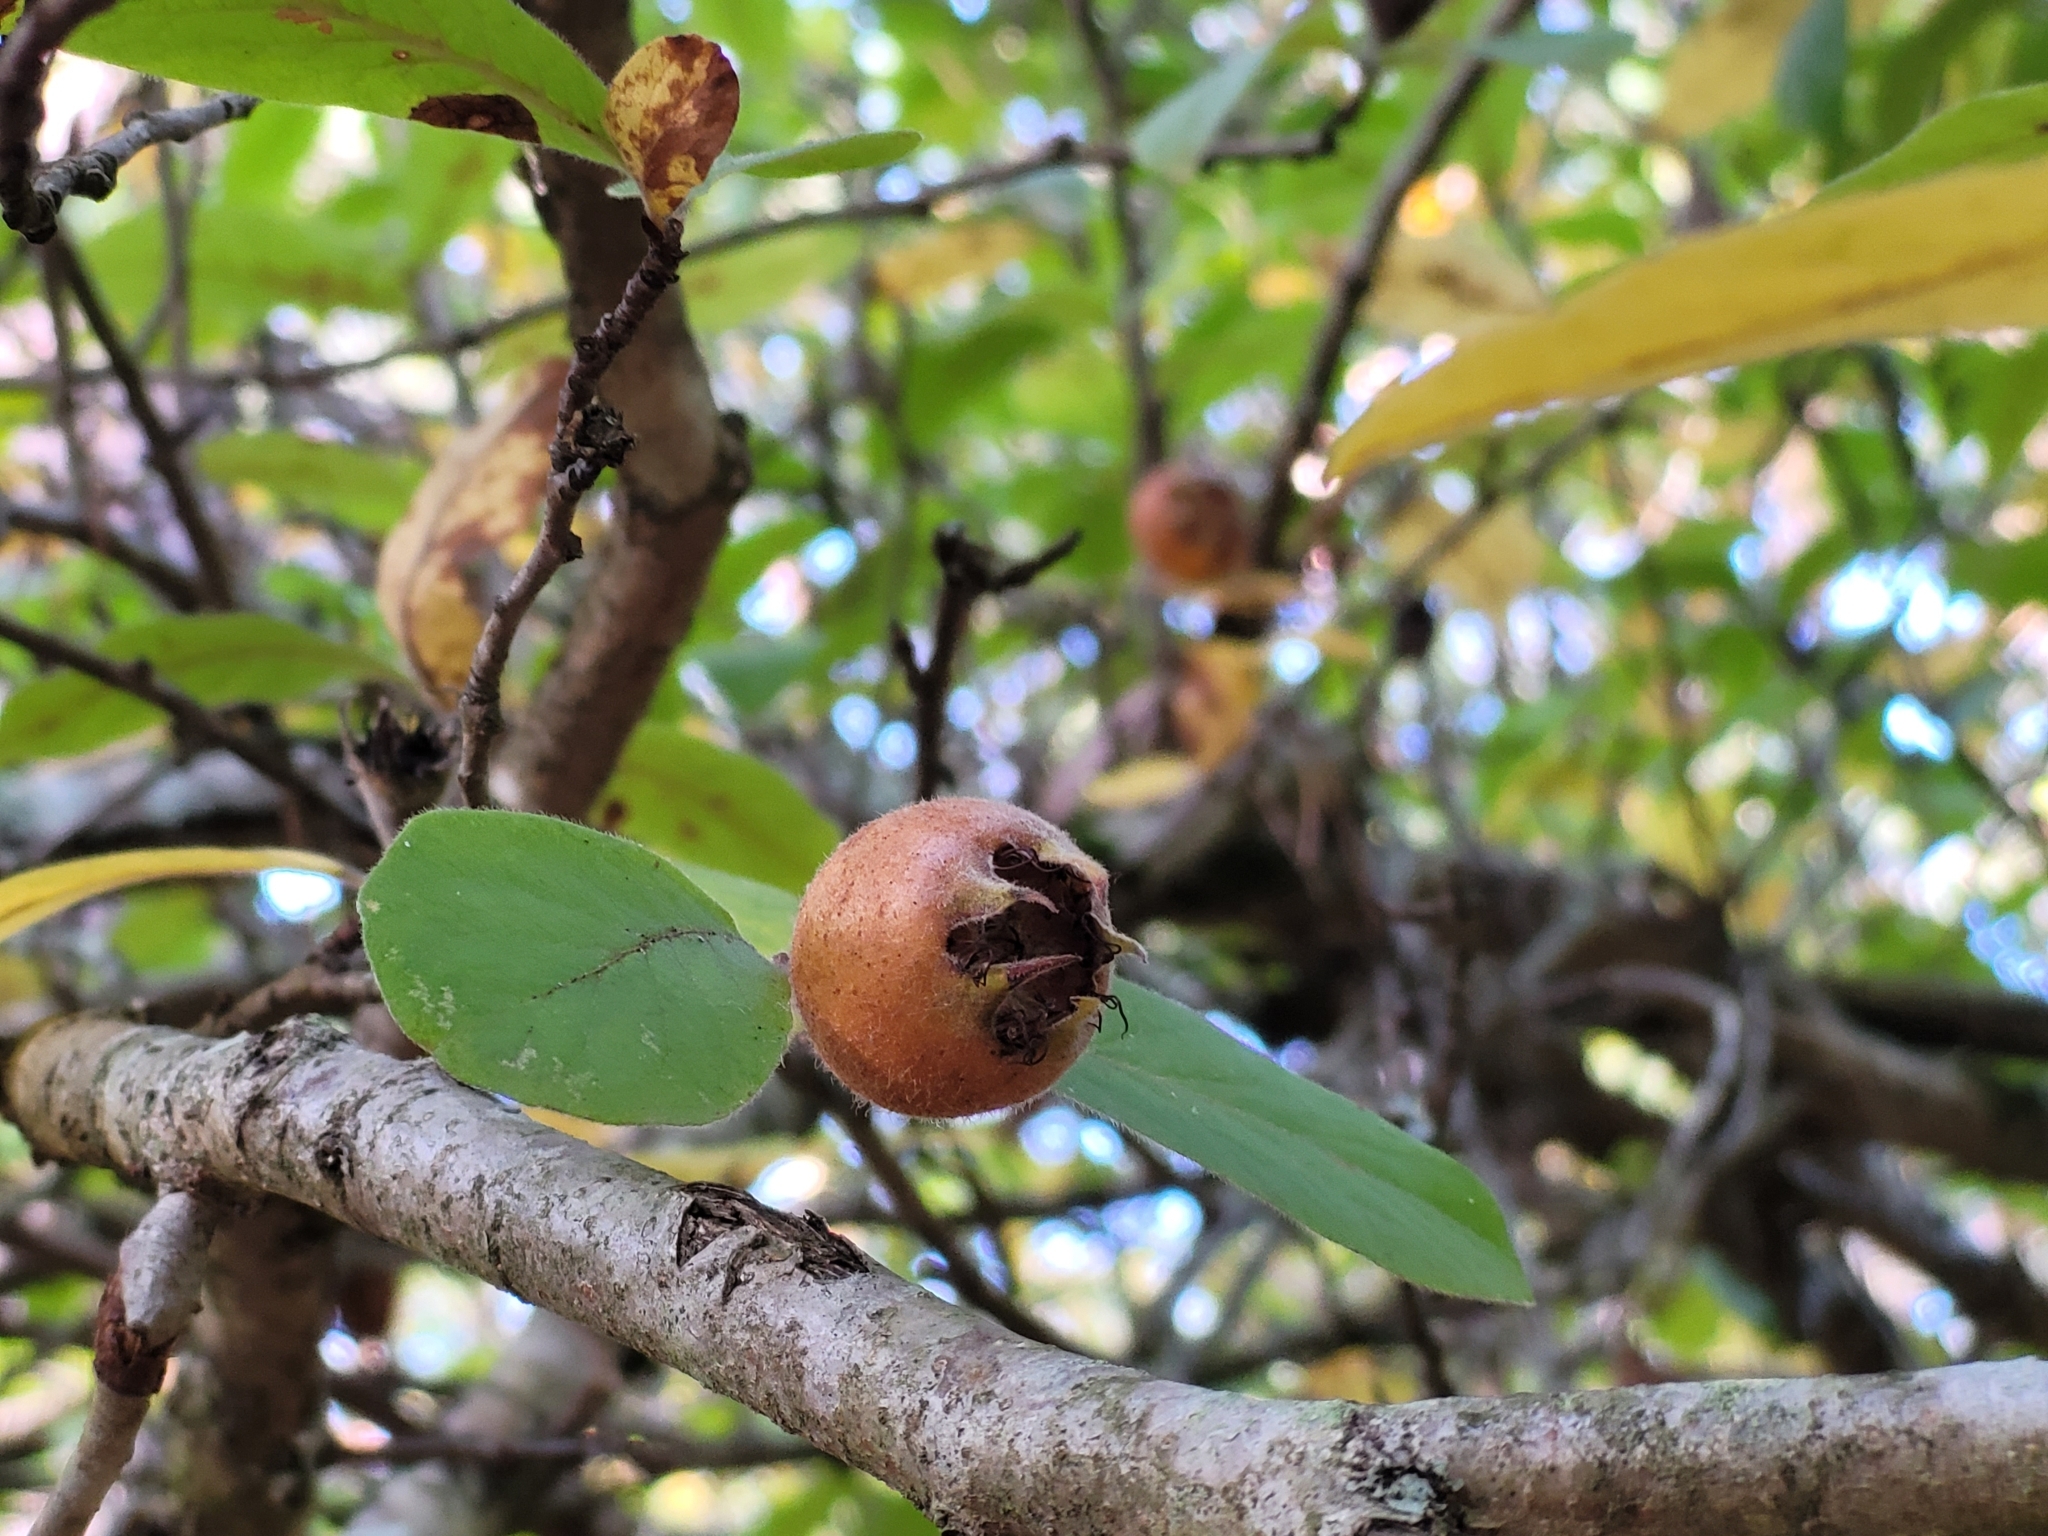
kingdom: Plantae
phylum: Tracheophyta
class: Magnoliopsida
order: Rosales
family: Rosaceae
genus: Mespilus
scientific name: Mespilus germanica
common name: Medlar
